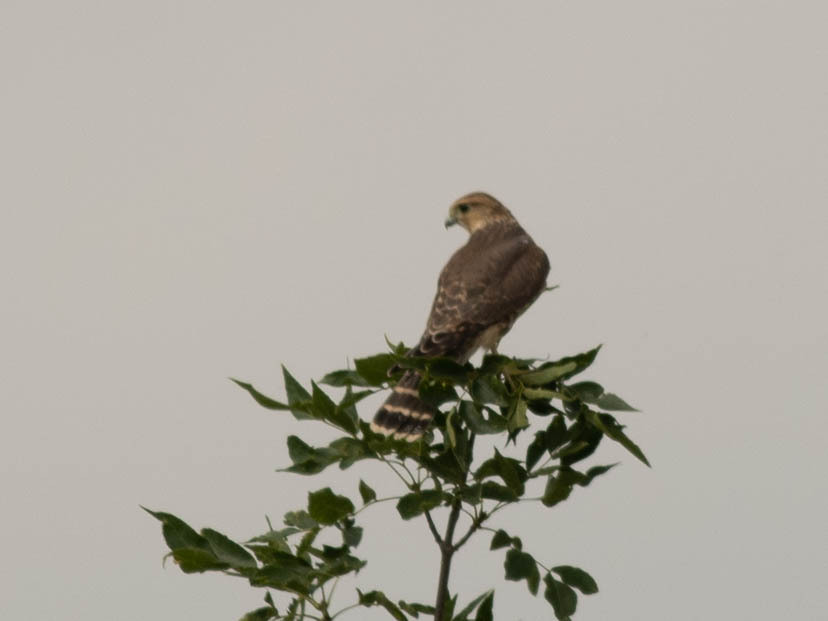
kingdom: Animalia
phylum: Chordata
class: Aves
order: Falconiformes
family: Falconidae
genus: Falco
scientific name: Falco columbarius
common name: Merlin
